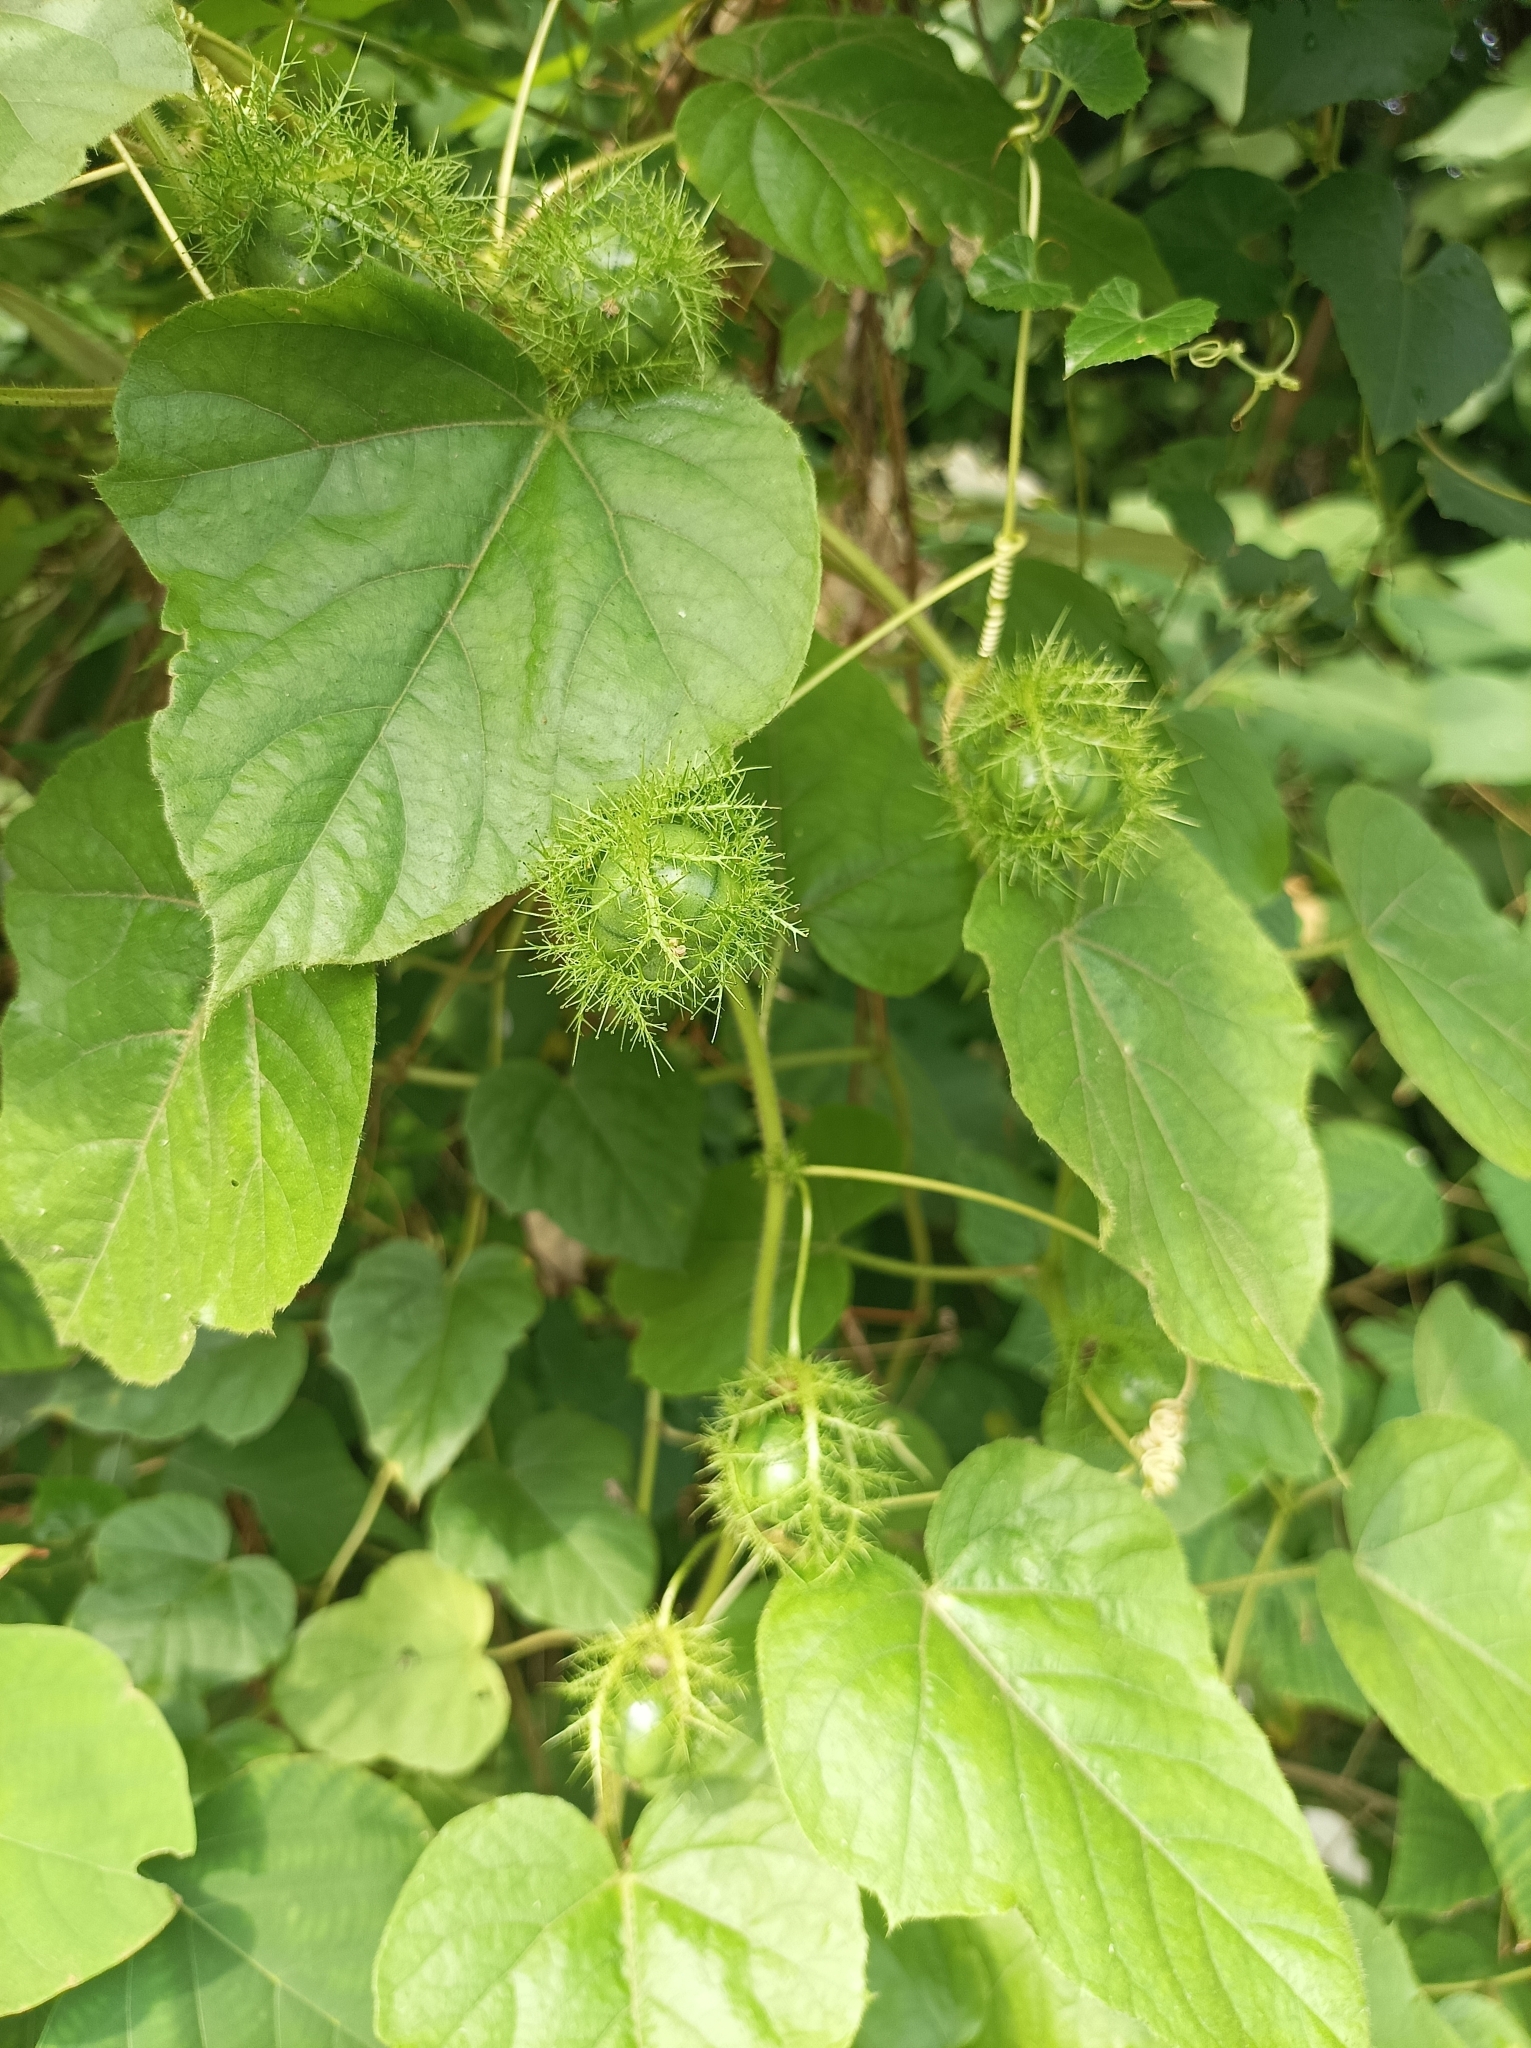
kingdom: Plantae
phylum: Tracheophyta
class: Magnoliopsida
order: Malpighiales
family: Passifloraceae
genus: Passiflora
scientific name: Passiflora vesicaria
